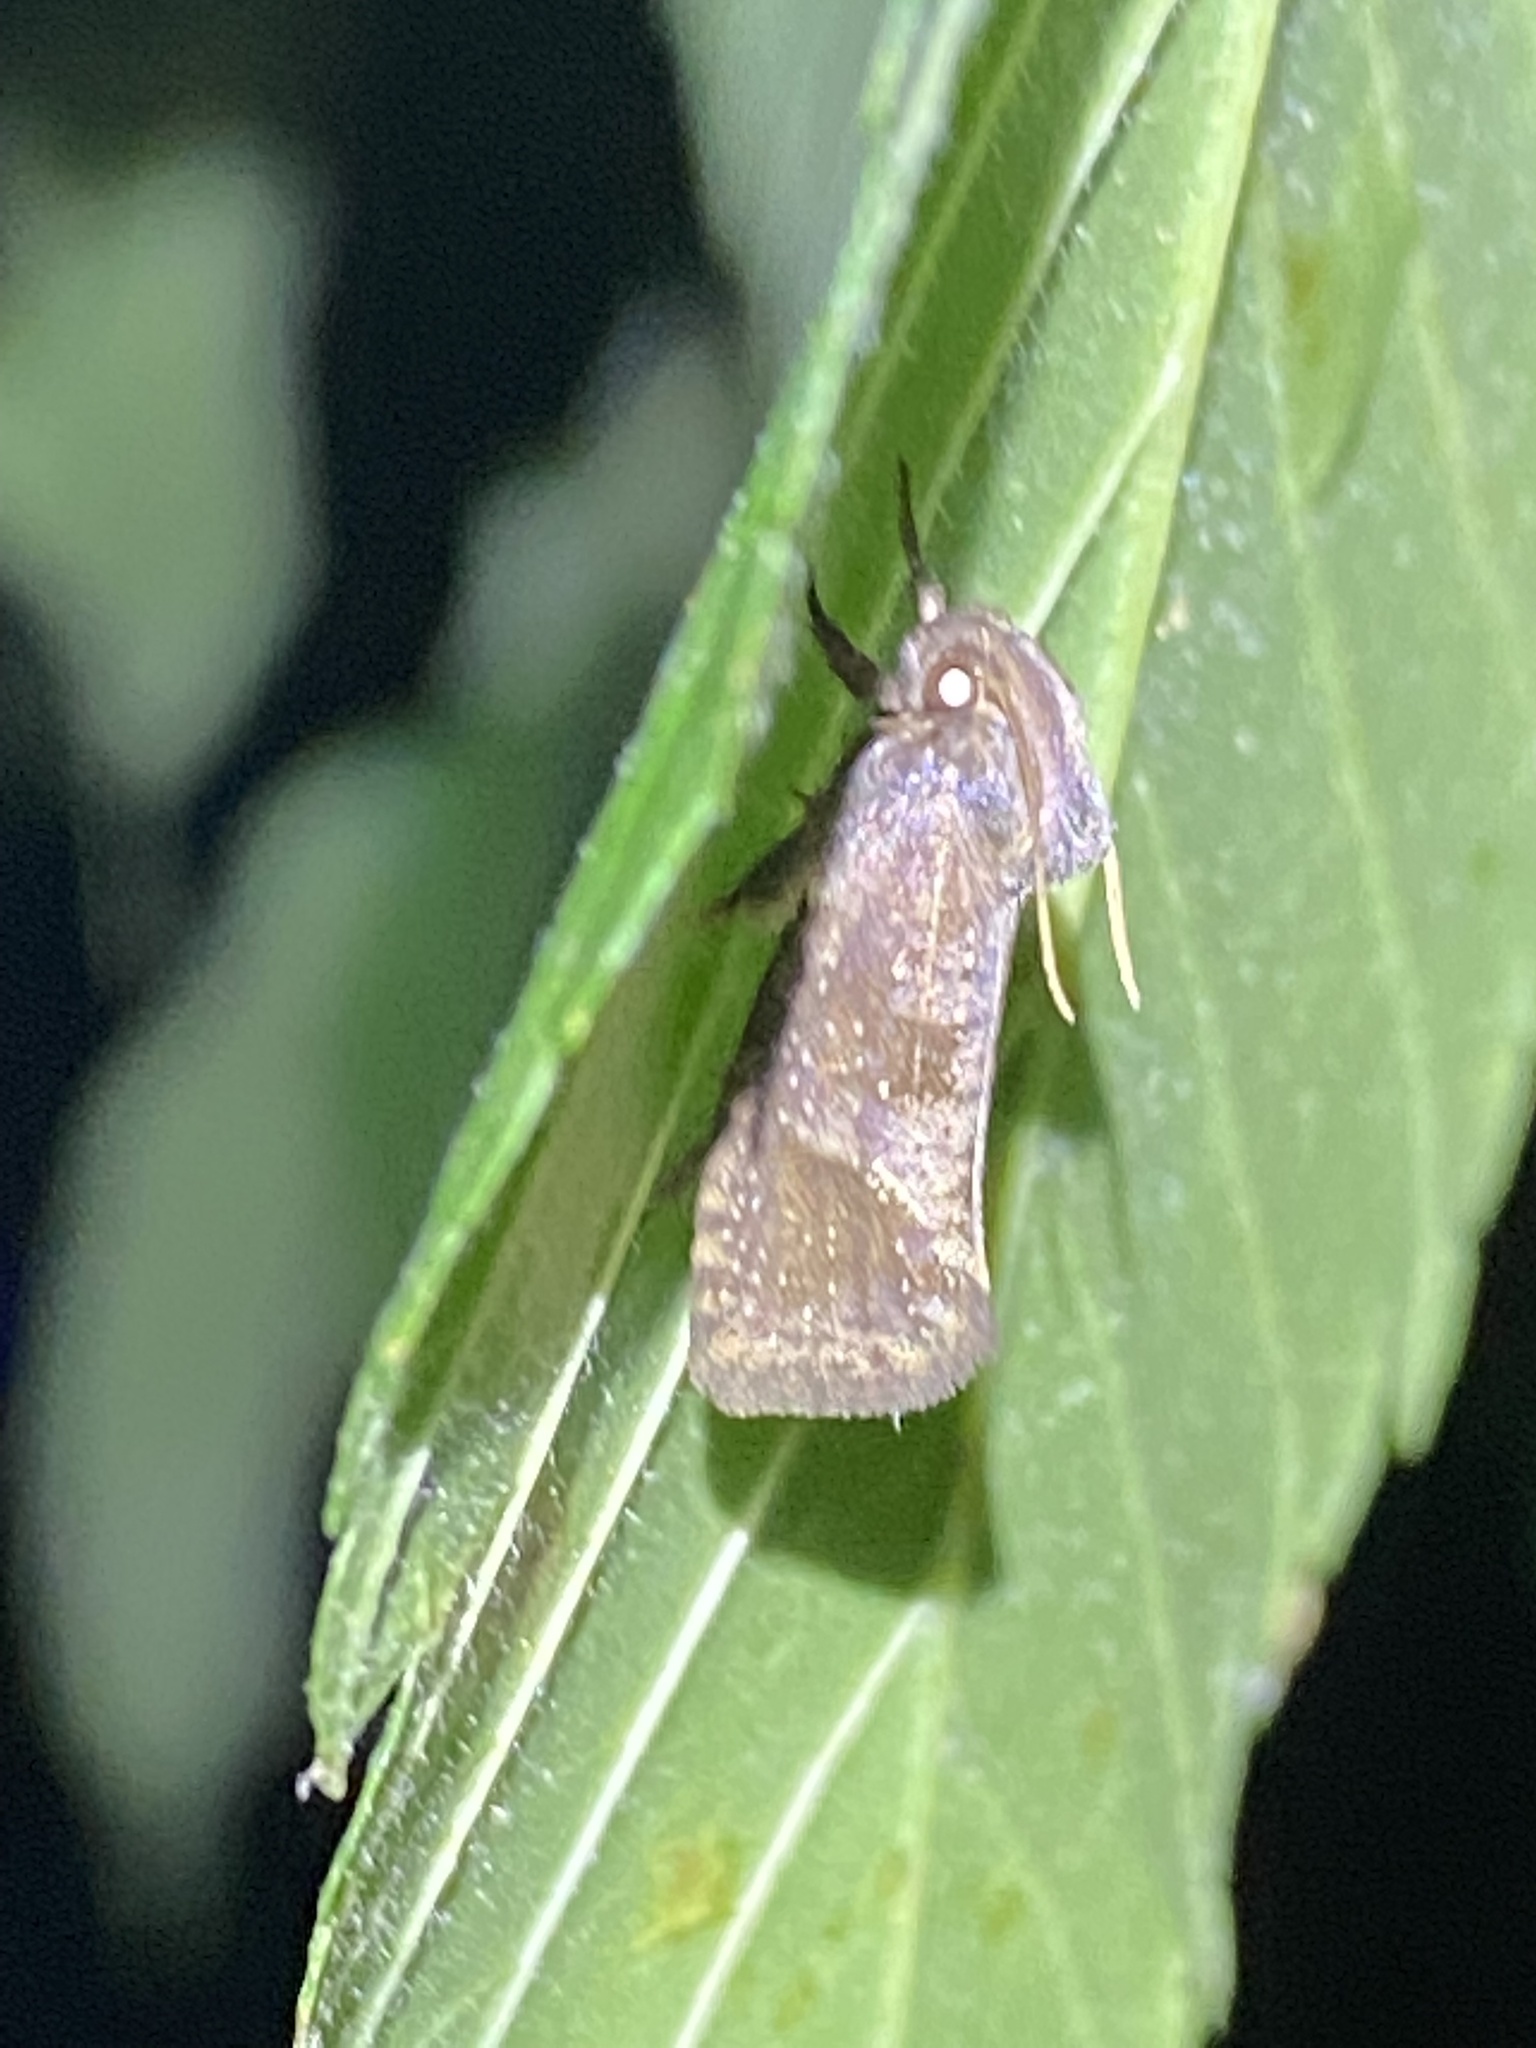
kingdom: Animalia
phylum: Arthropoda
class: Insecta
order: Lepidoptera
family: Tineidae
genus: Acrolophus
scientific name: Acrolophus texanella
